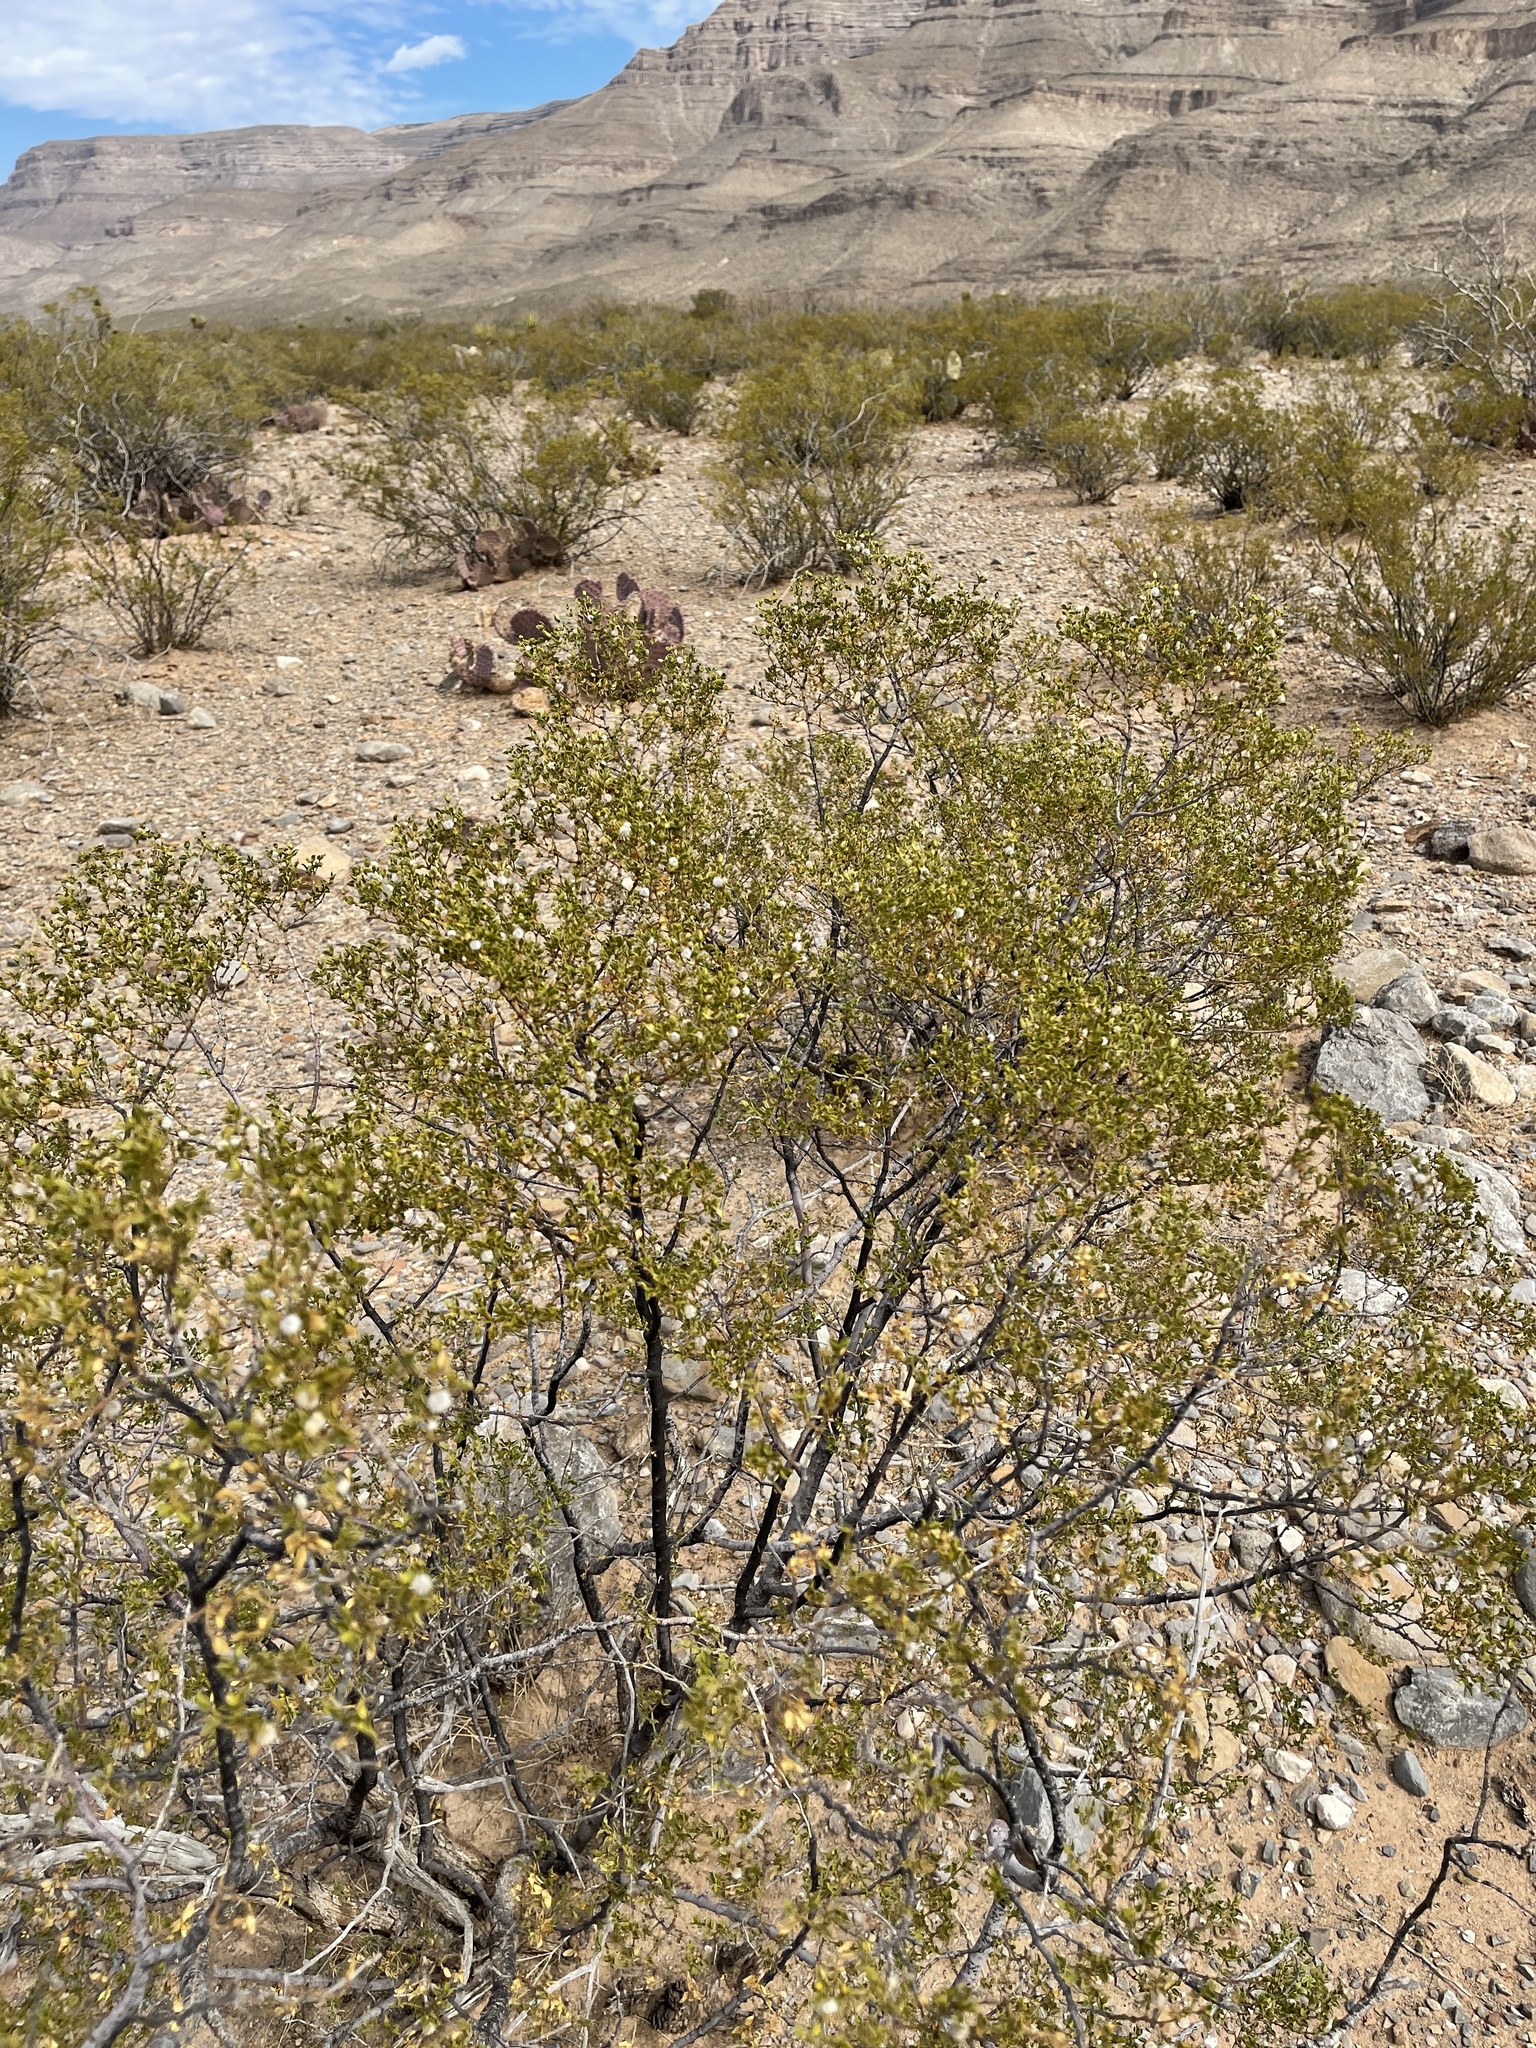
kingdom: Plantae
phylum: Tracheophyta
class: Magnoliopsida
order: Zygophyllales
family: Zygophyllaceae
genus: Larrea
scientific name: Larrea tridentata
